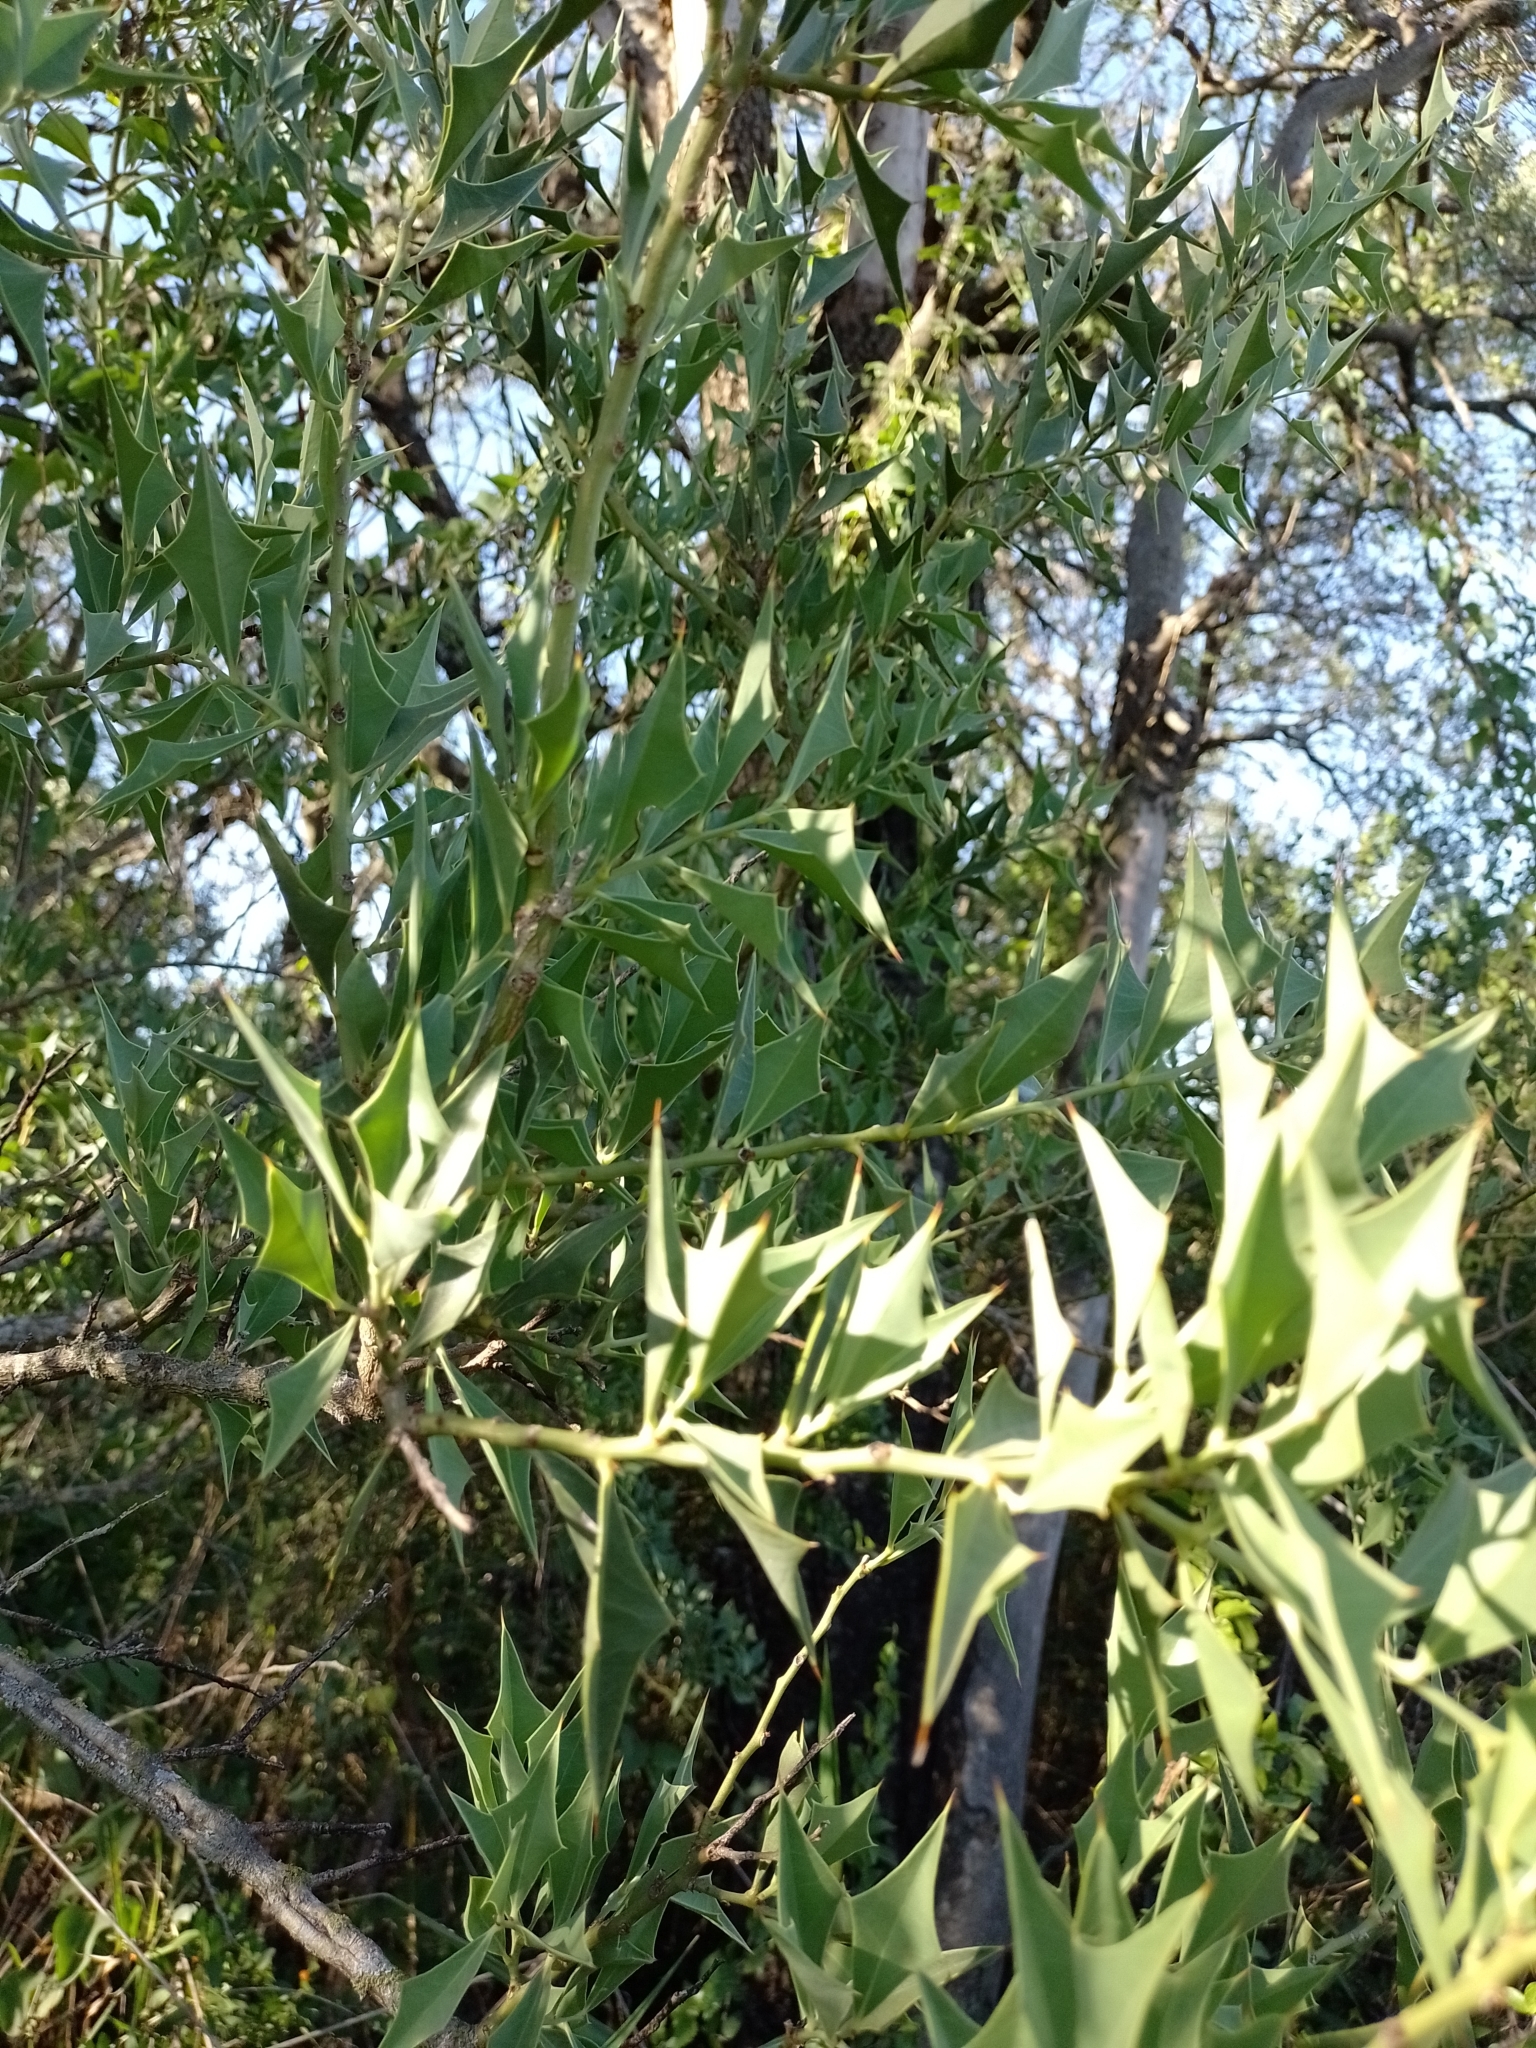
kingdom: Plantae
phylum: Tracheophyta
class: Magnoliopsida
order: Santalales
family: Cervantesiaceae
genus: Jodina
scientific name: Jodina rhombifolia
